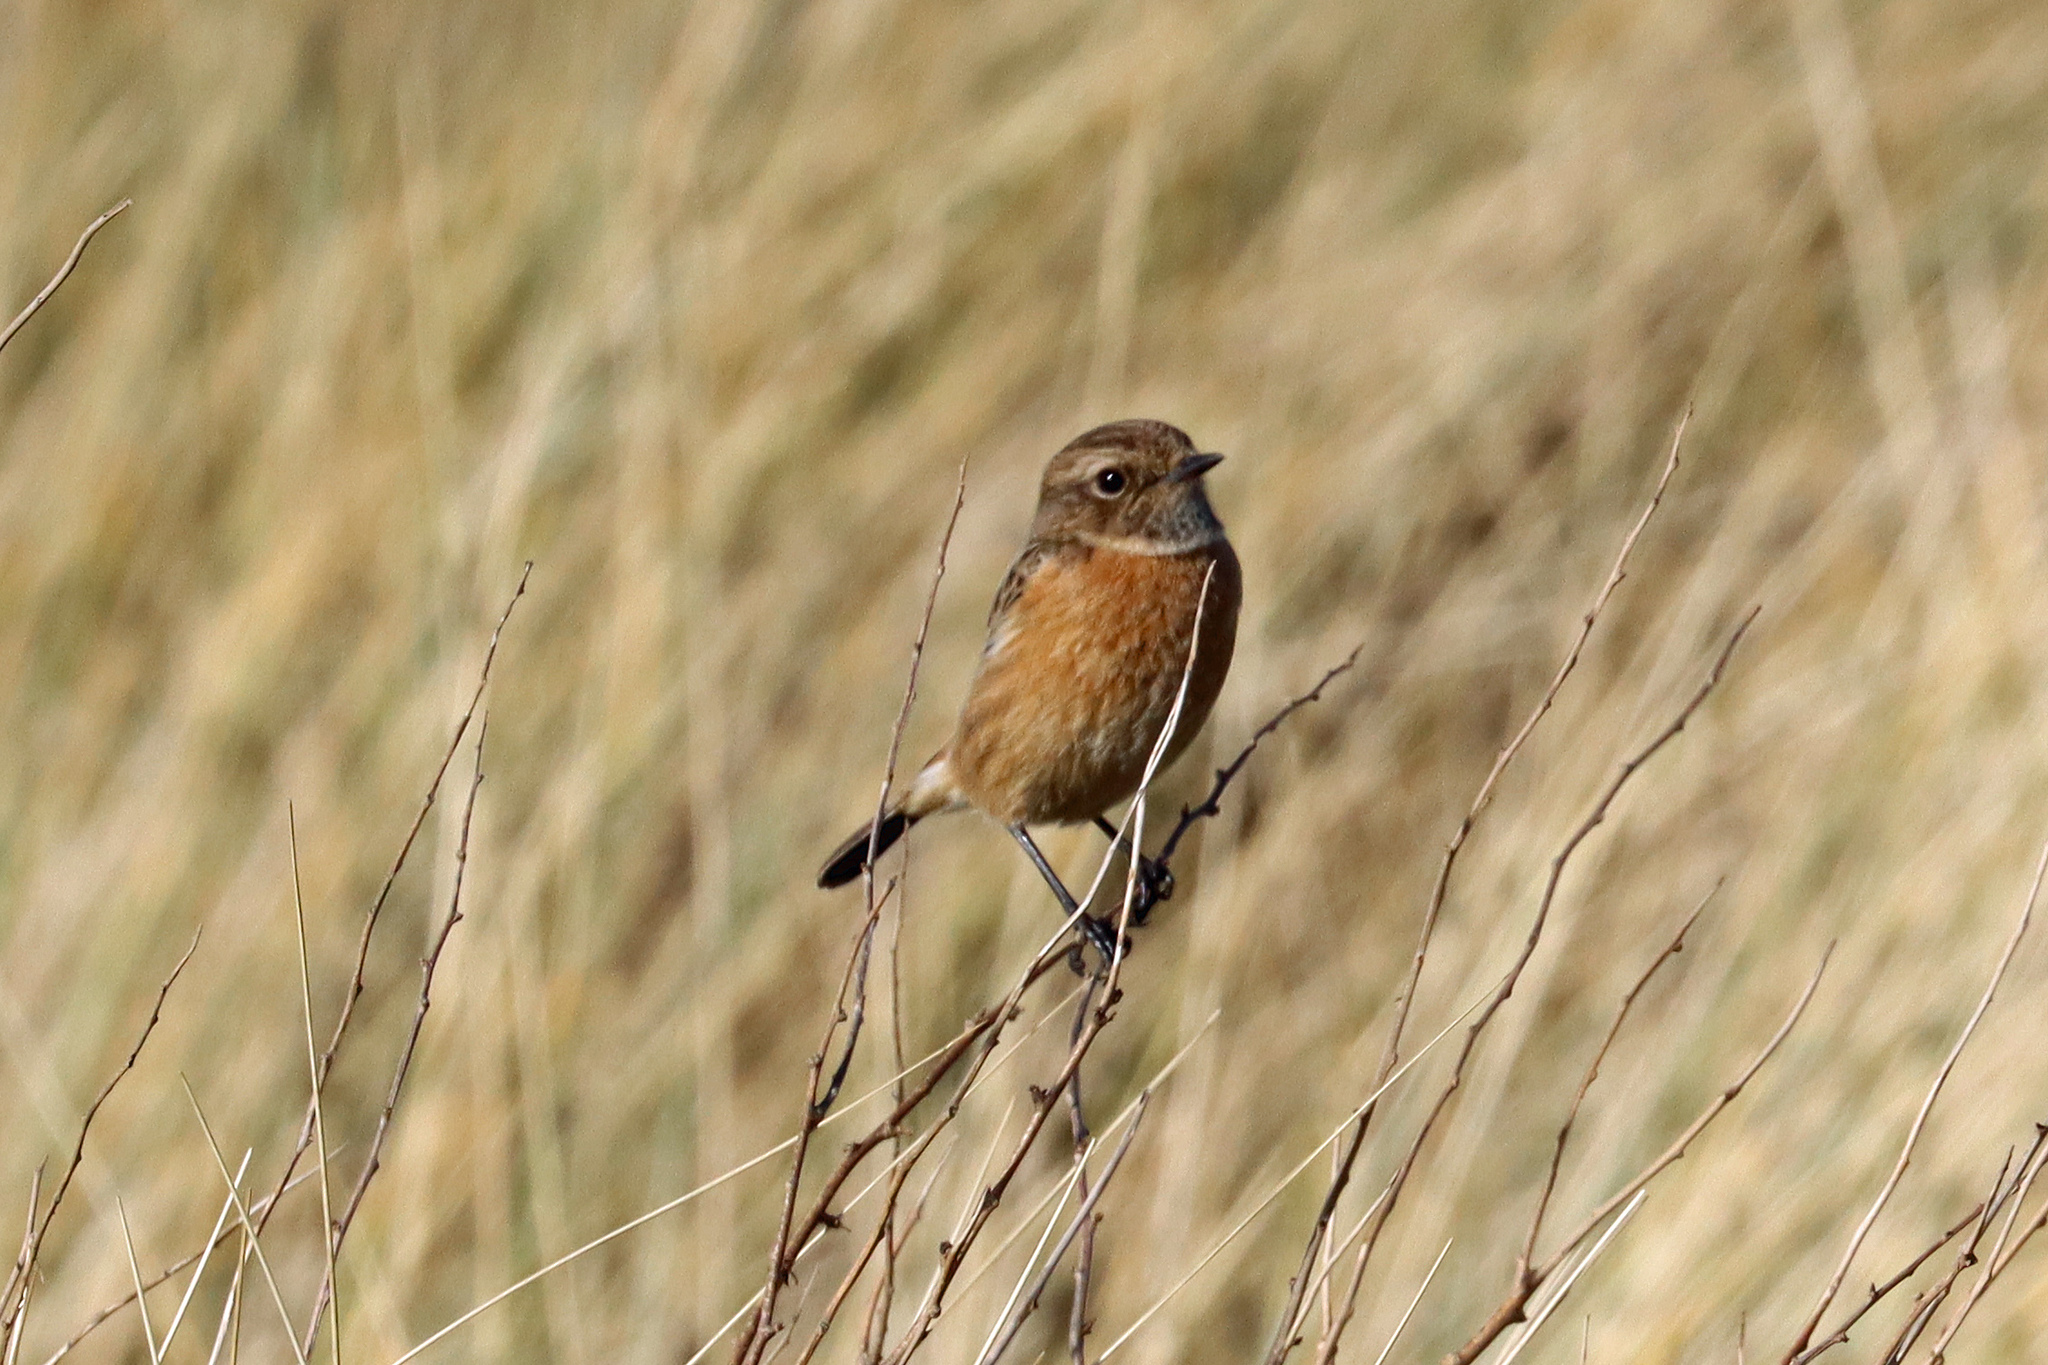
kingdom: Animalia
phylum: Chordata
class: Aves
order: Passeriformes
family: Muscicapidae
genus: Saxicola
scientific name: Saxicola rubicola
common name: European stonechat
